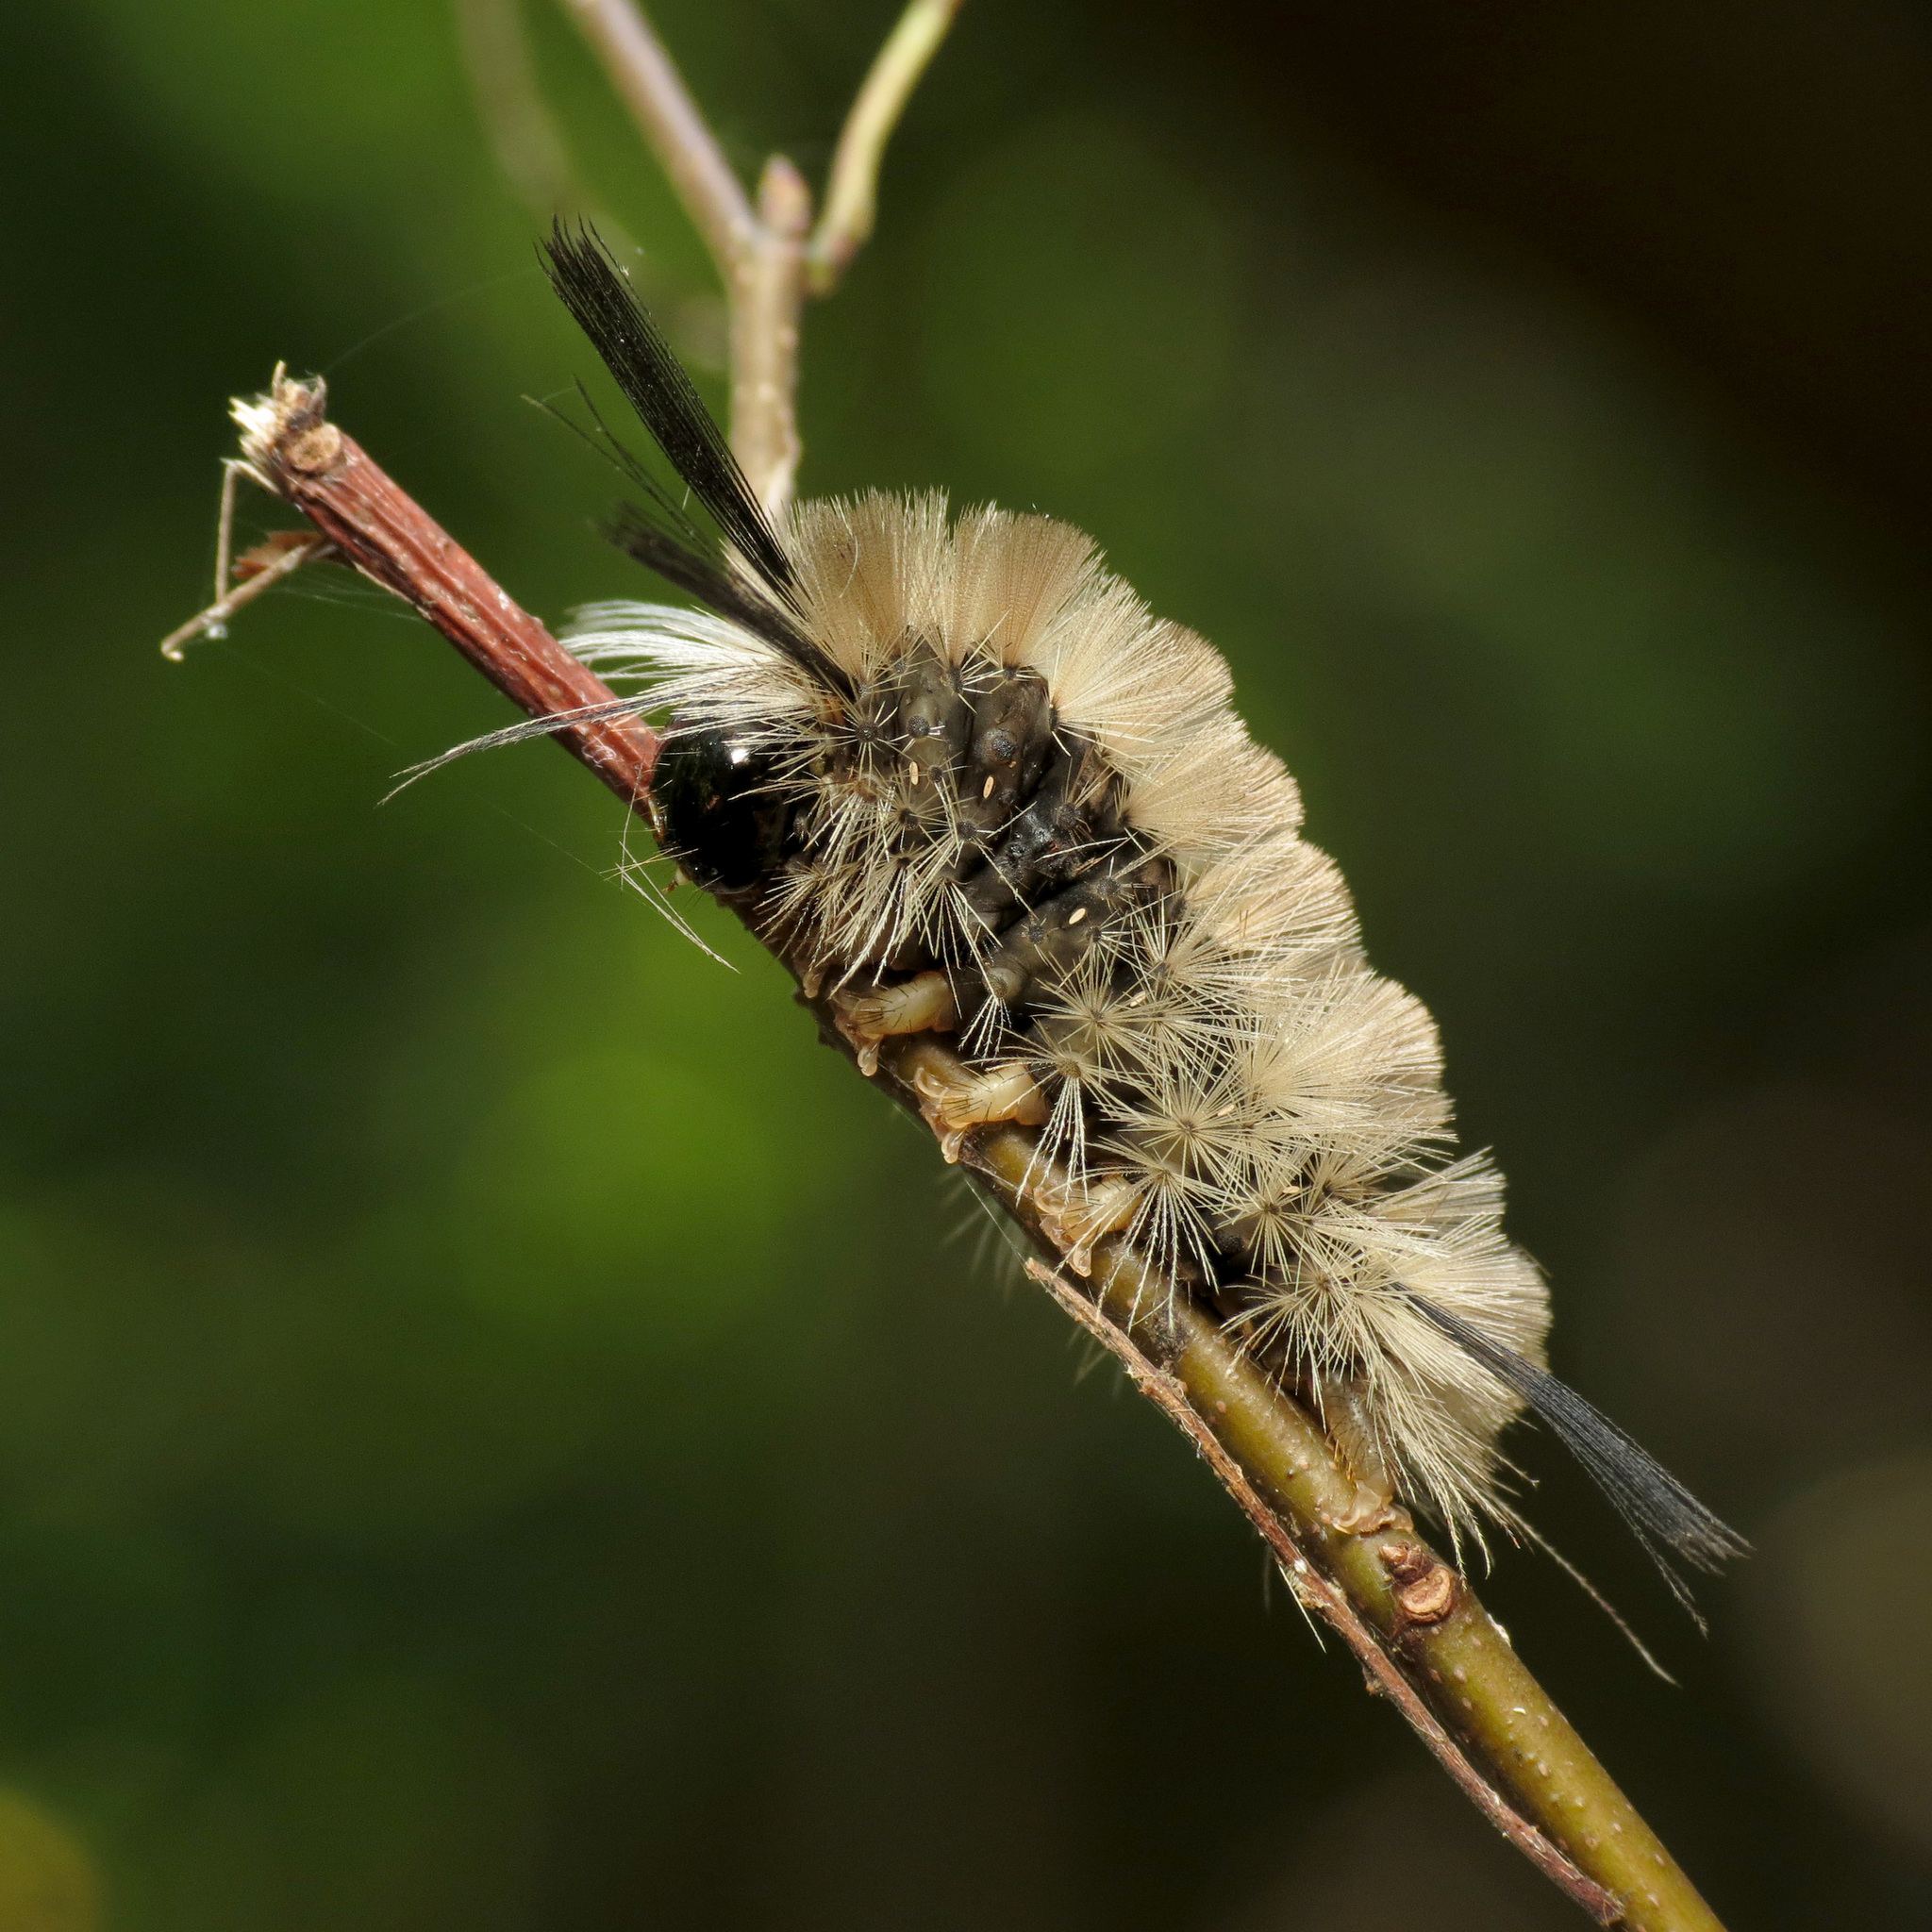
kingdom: Animalia
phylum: Arthropoda
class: Insecta
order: Lepidoptera
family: Erebidae
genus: Halysidota
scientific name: Halysidota tessellaris
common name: Banded tussock moth
